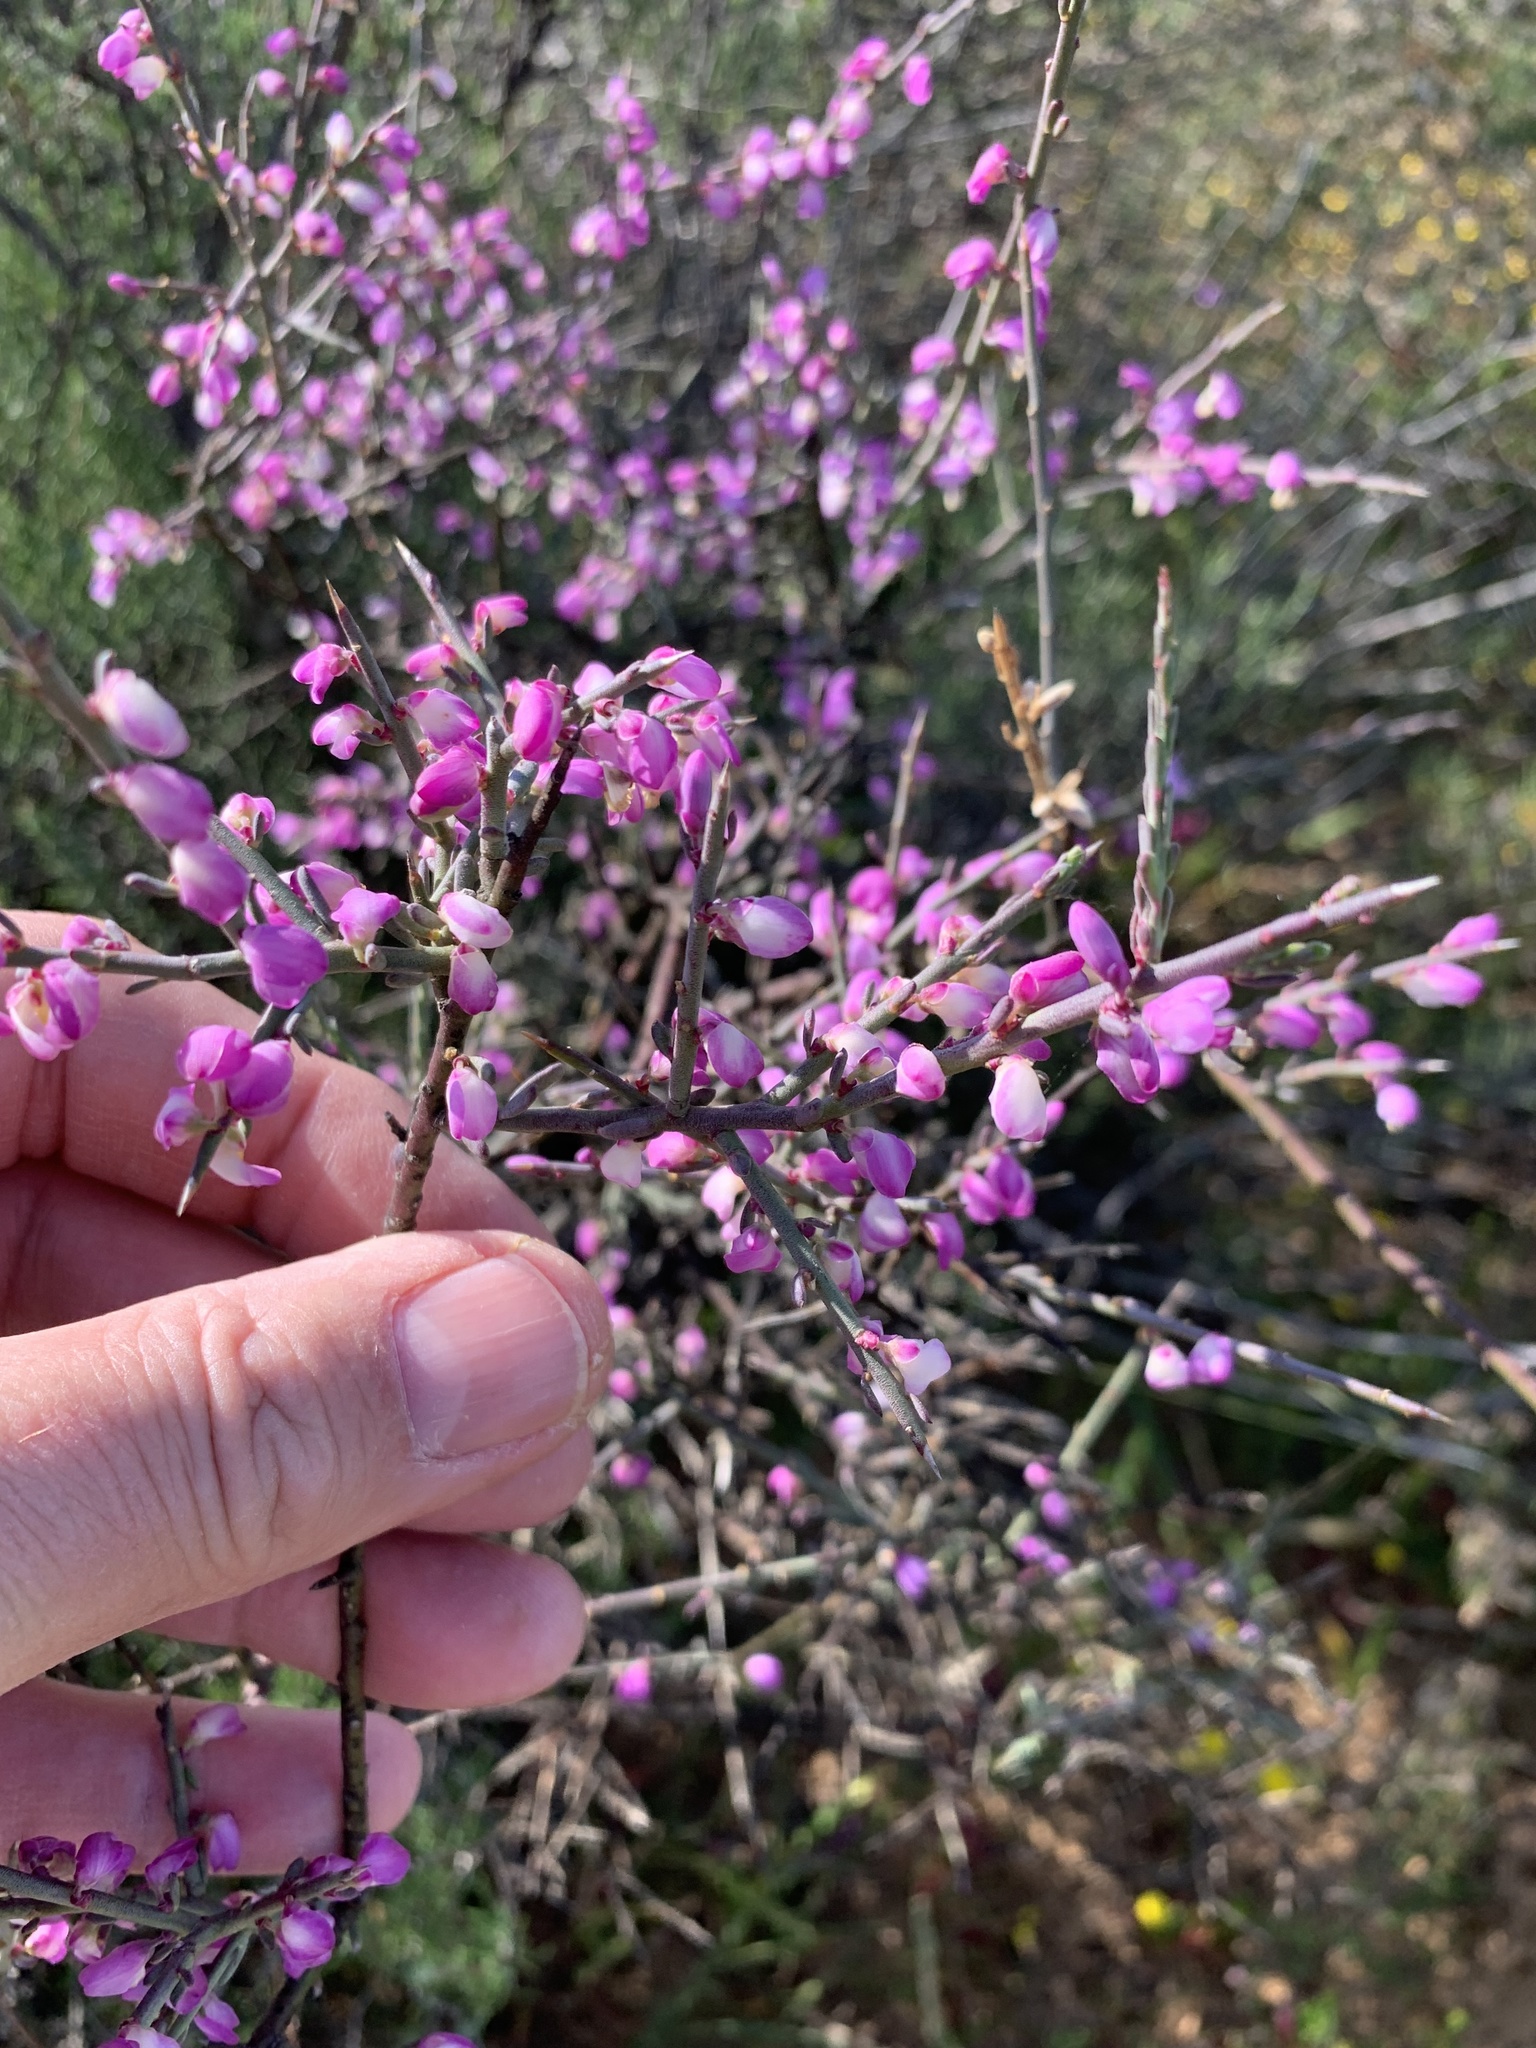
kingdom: Plantae
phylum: Tracheophyta
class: Magnoliopsida
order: Fabales
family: Polygalaceae
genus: Muraltia
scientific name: Muraltia spinosa
